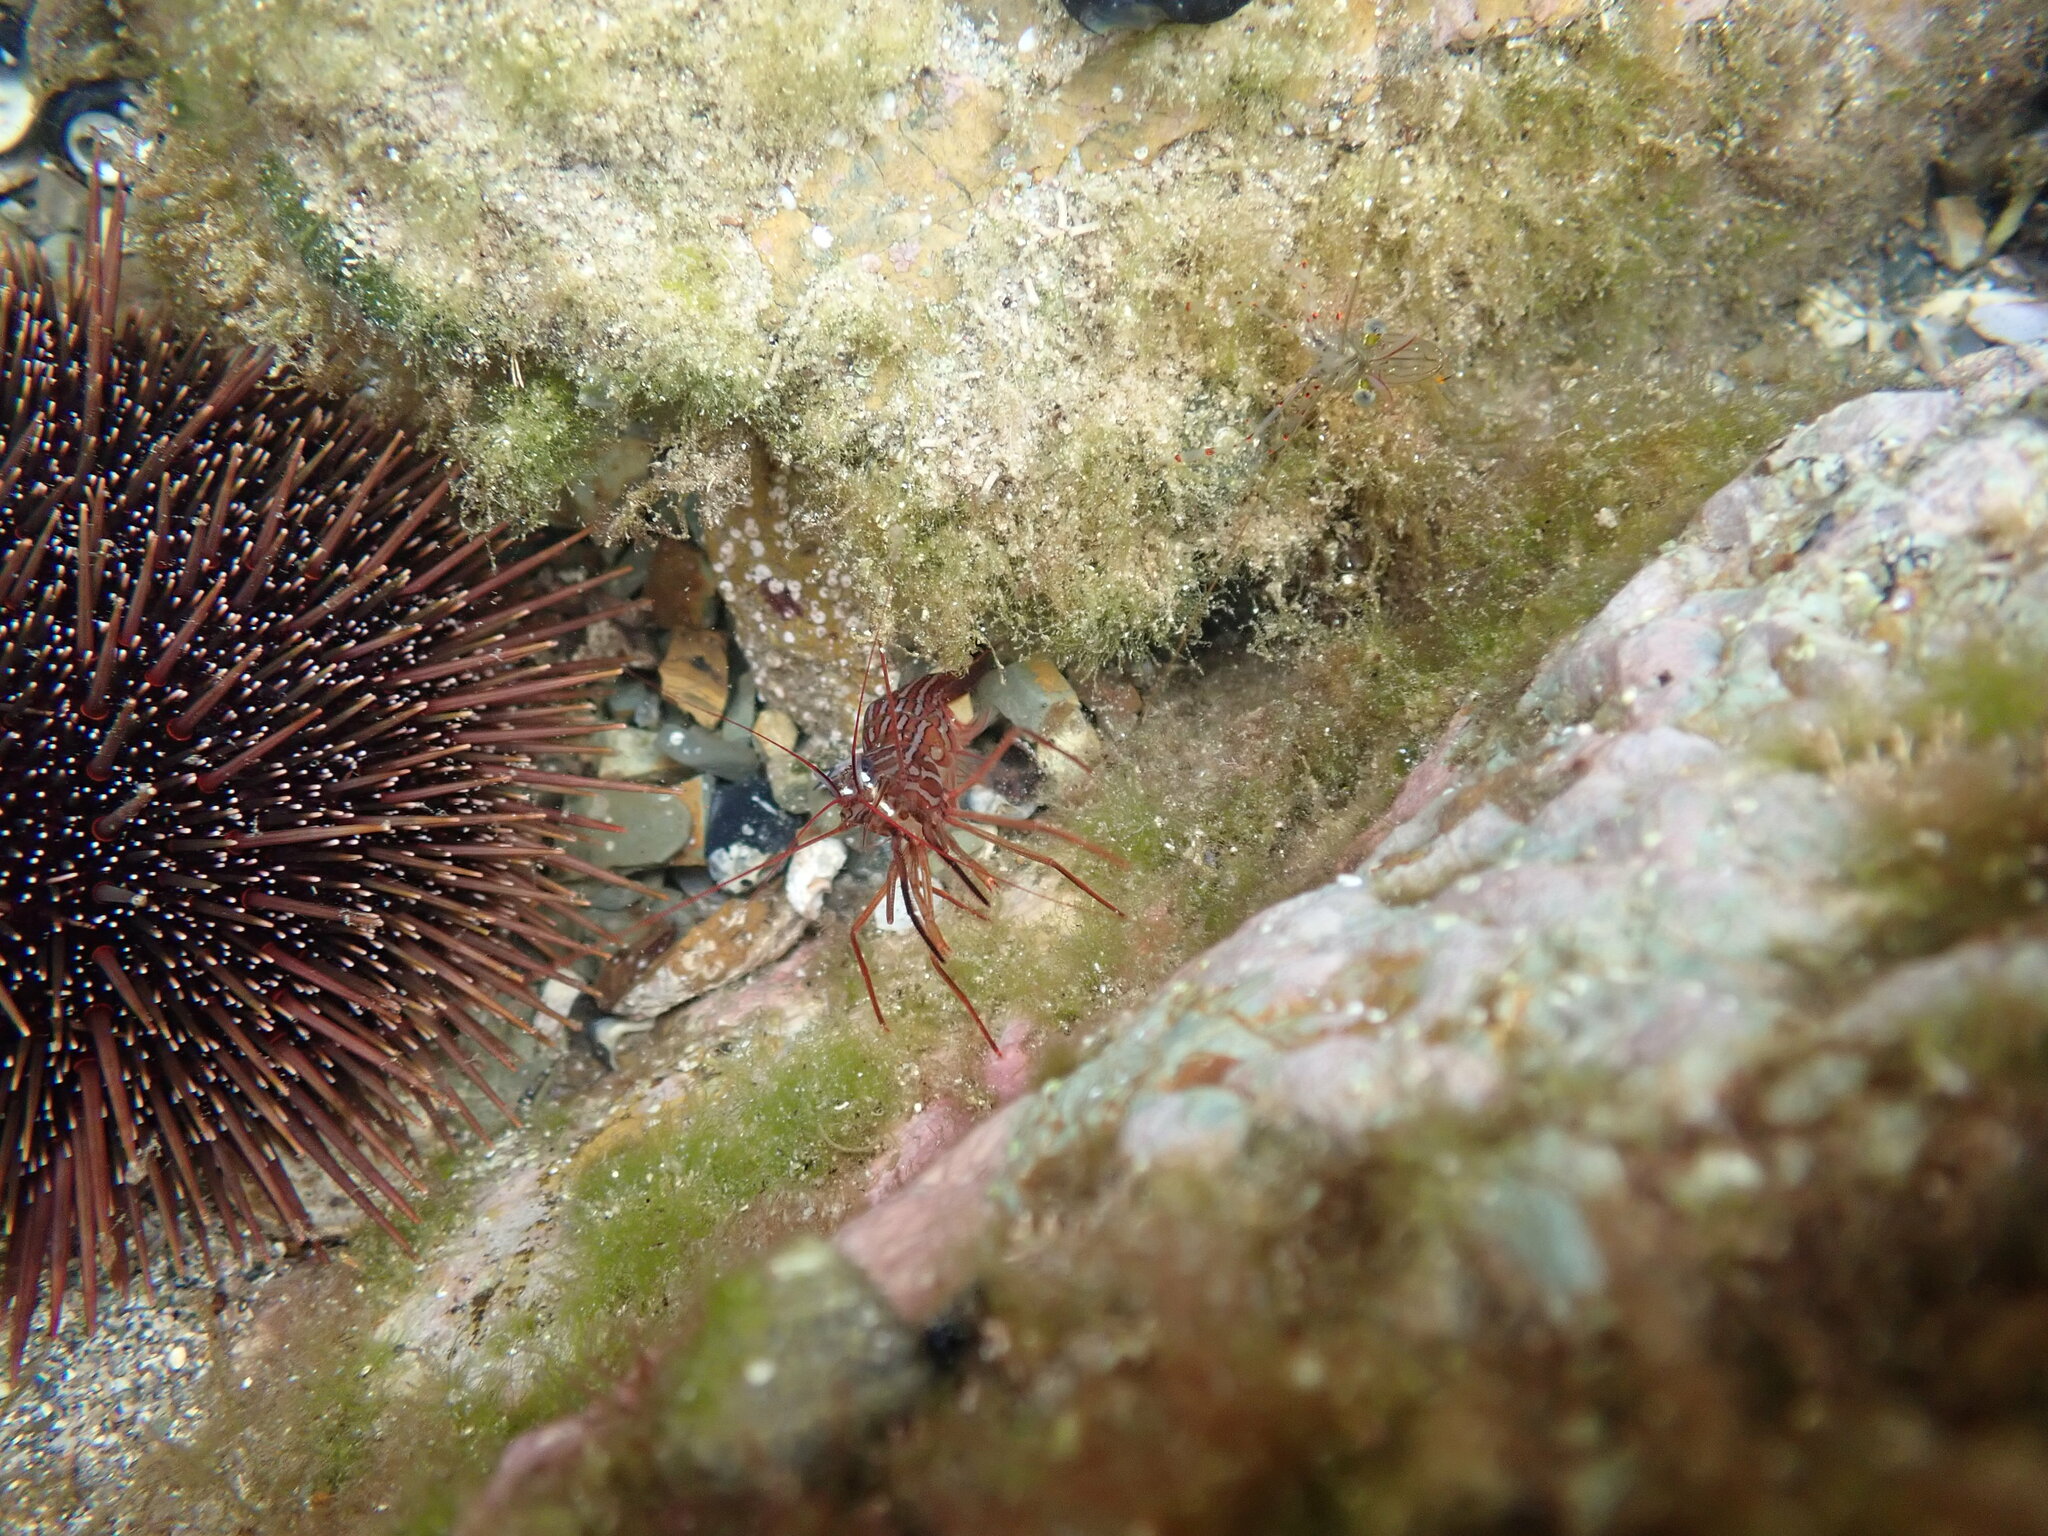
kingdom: Animalia
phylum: Arthropoda
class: Malacostraca
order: Decapoda
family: Lysmatidae
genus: Lysmata
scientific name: Lysmata californica
